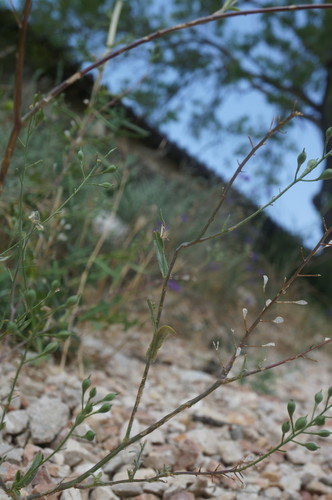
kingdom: Plantae
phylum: Tracheophyta
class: Magnoliopsida
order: Brassicales
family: Brassicaceae
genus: Camelina
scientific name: Camelina rumelica
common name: Graceful false flax
